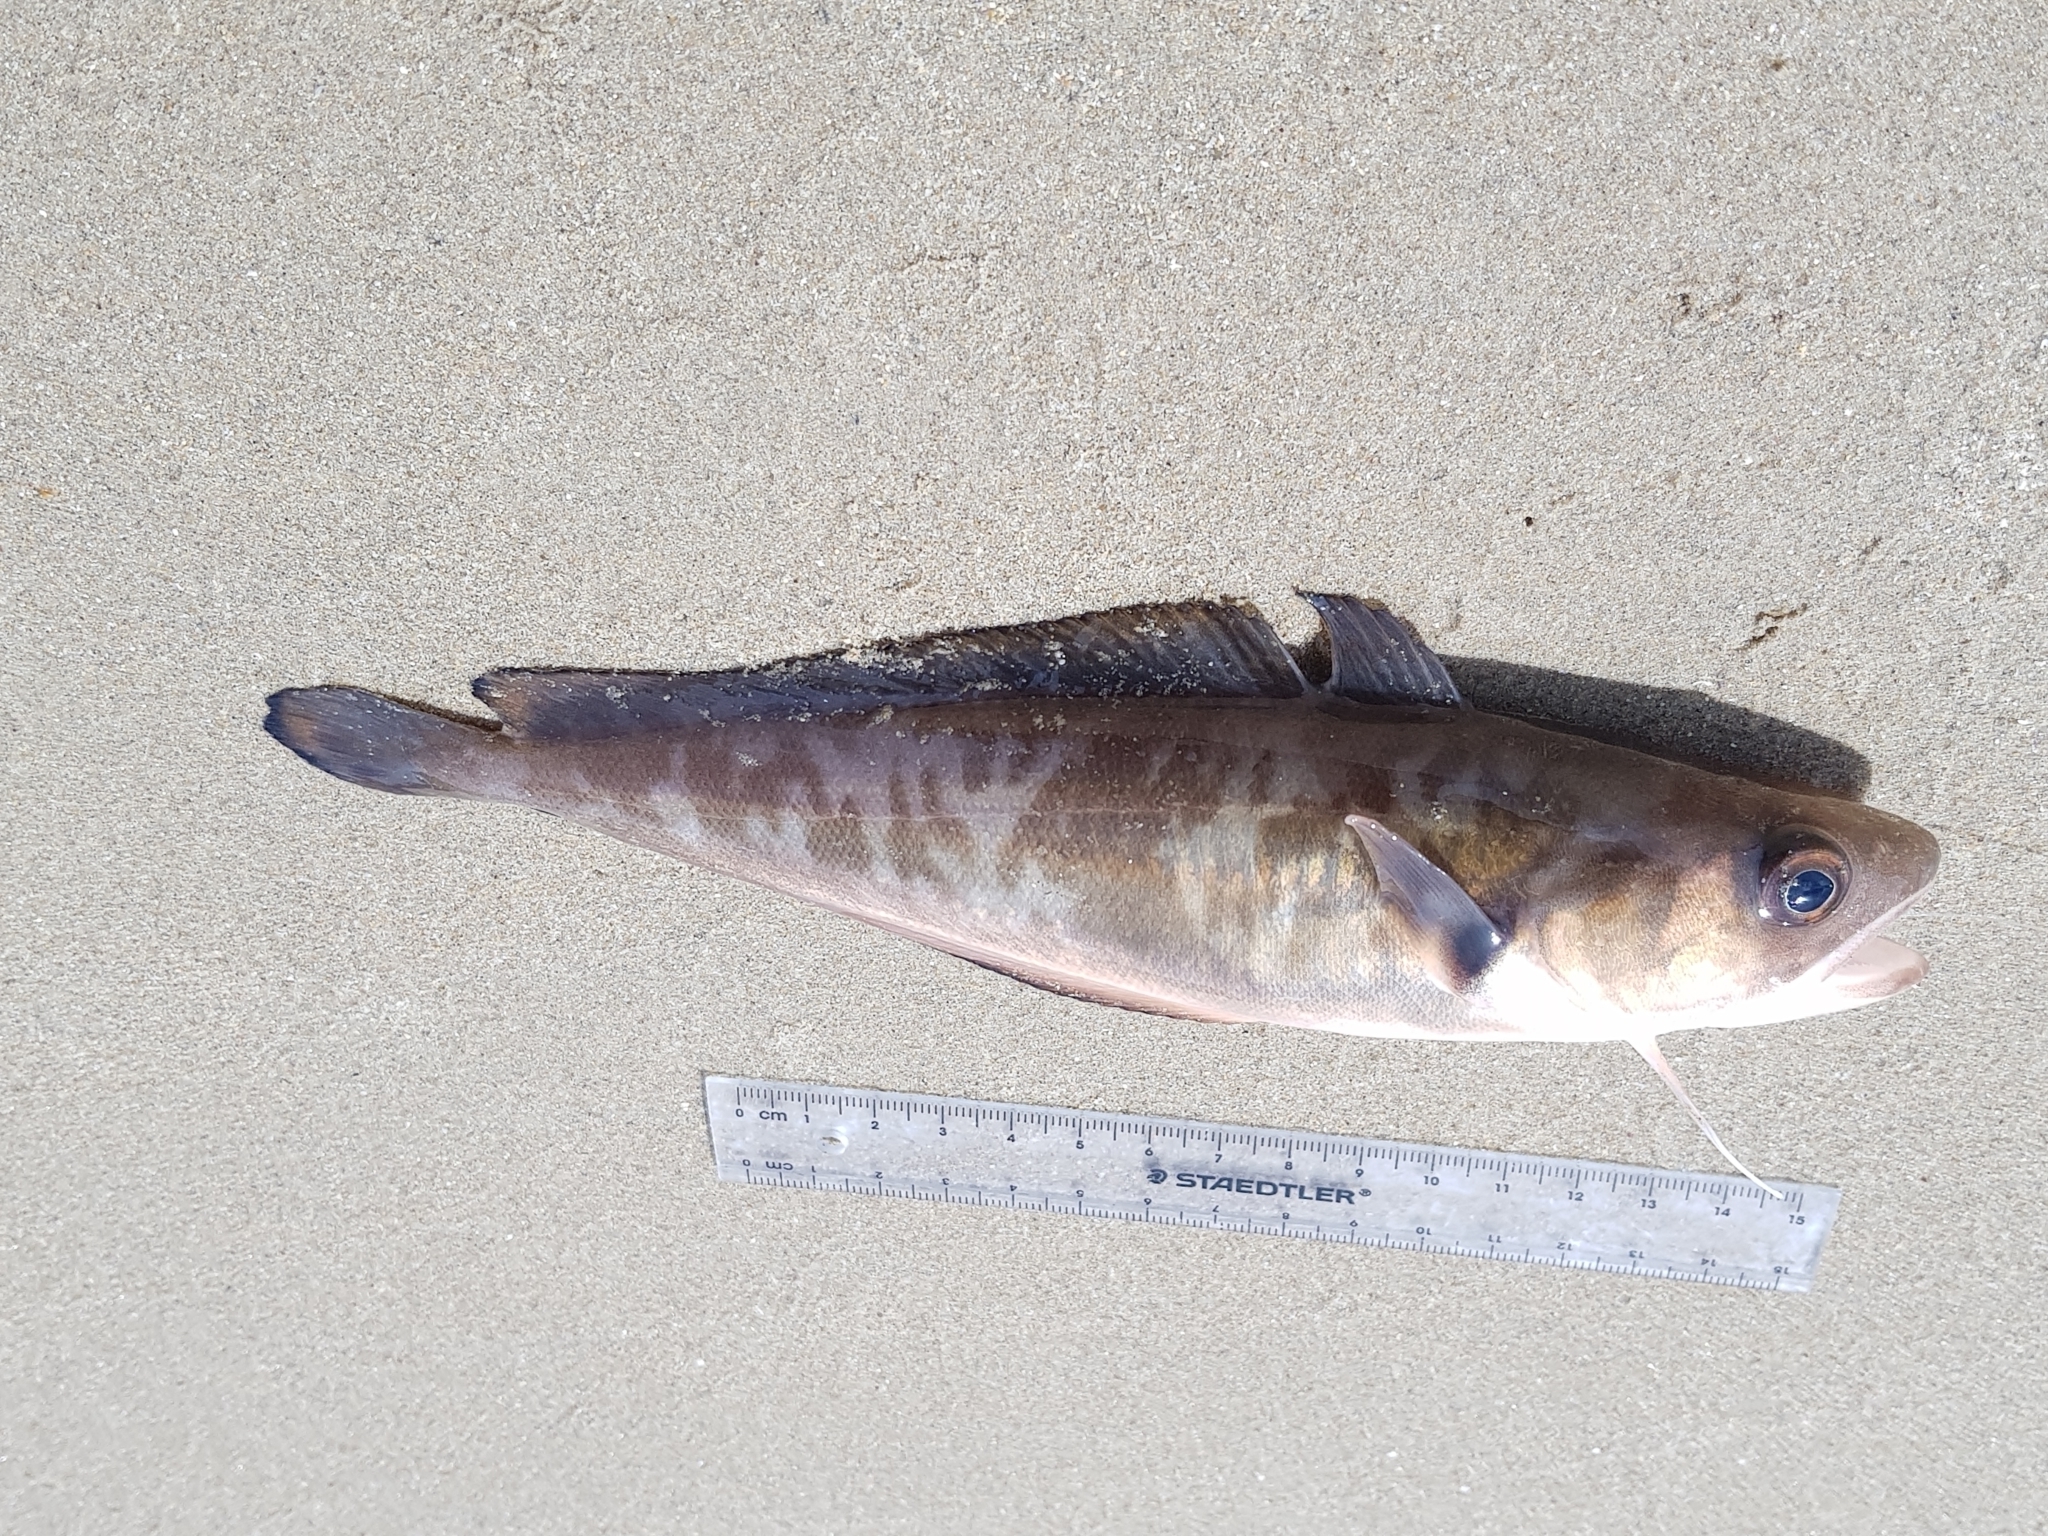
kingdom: Animalia
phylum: Chordata
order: Gadiformes
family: Moridae
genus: Pseudophycis
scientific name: Pseudophycis palmata
